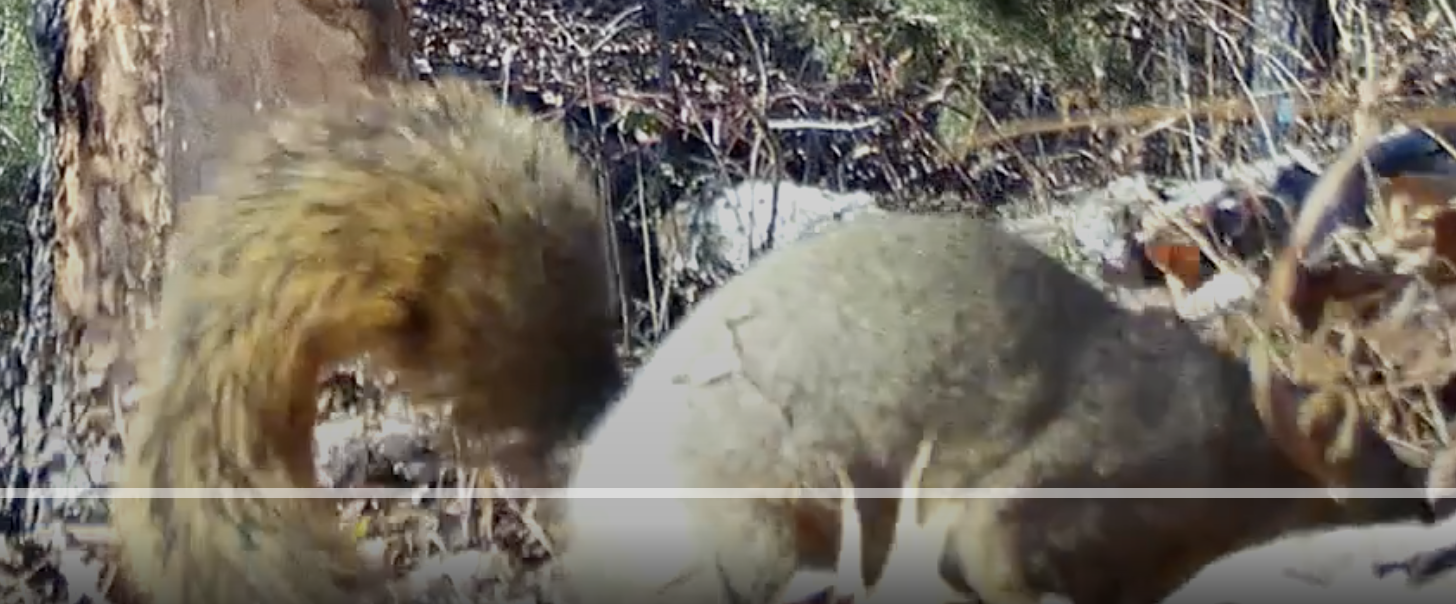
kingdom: Animalia
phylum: Chordata
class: Mammalia
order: Rodentia
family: Sciuridae
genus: Sciurus
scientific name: Sciurus niger
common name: Fox squirrel
